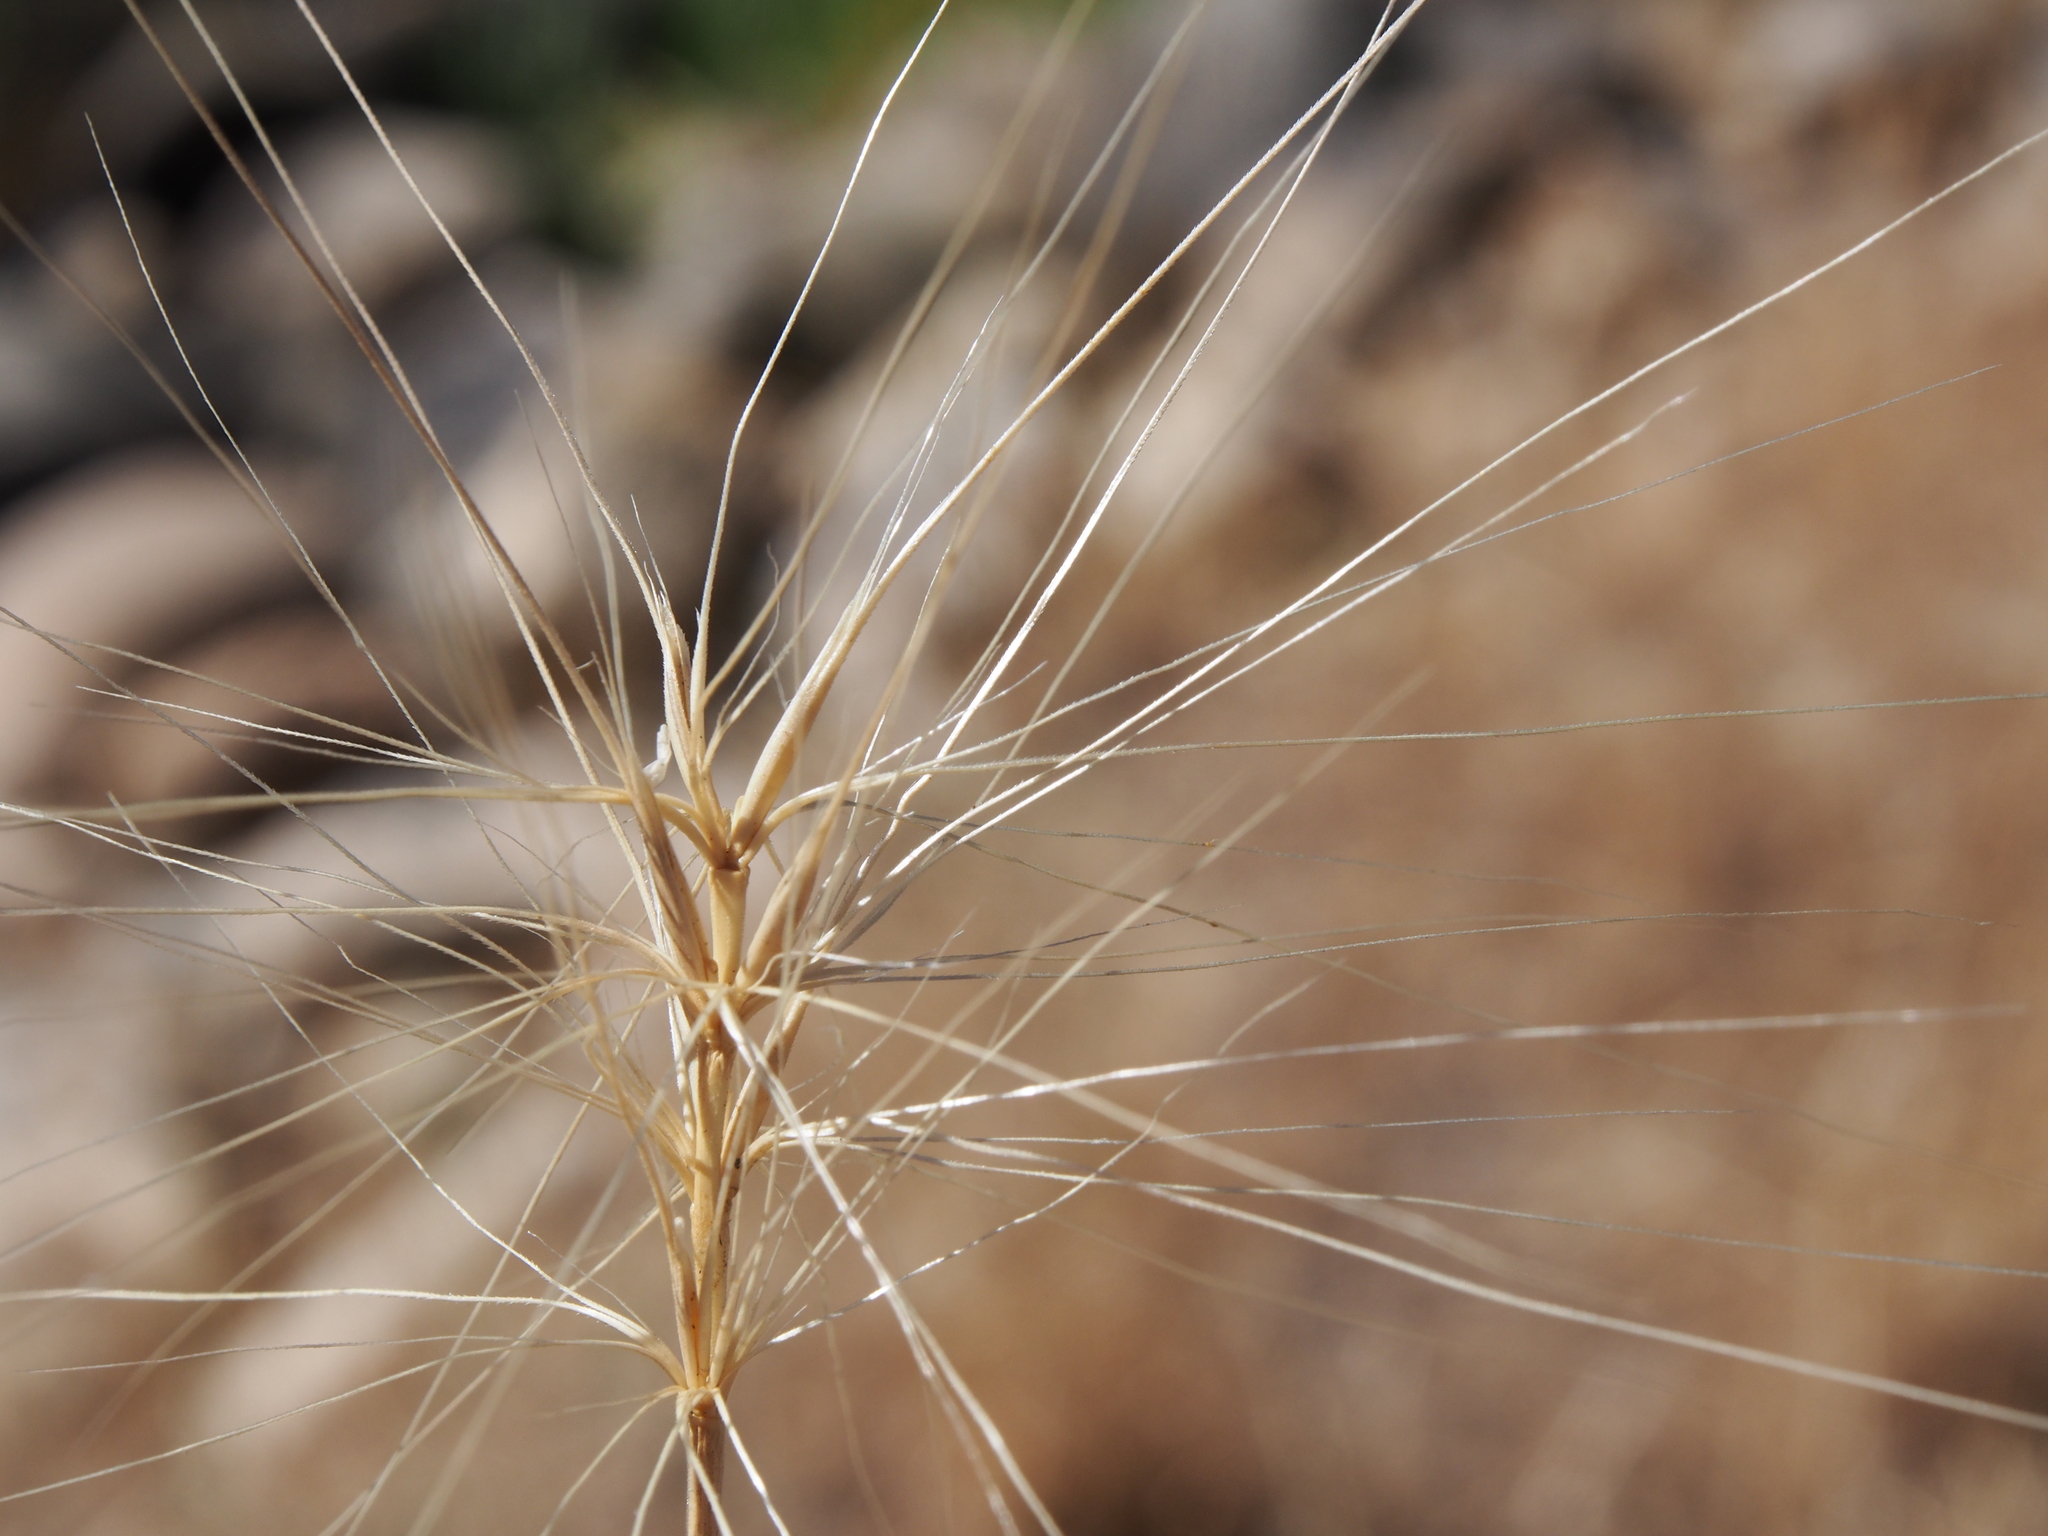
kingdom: Plantae
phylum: Tracheophyta
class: Liliopsida
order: Poales
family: Poaceae
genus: Elymus
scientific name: Elymus elymoides
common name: Bottlebrush squirreltail
